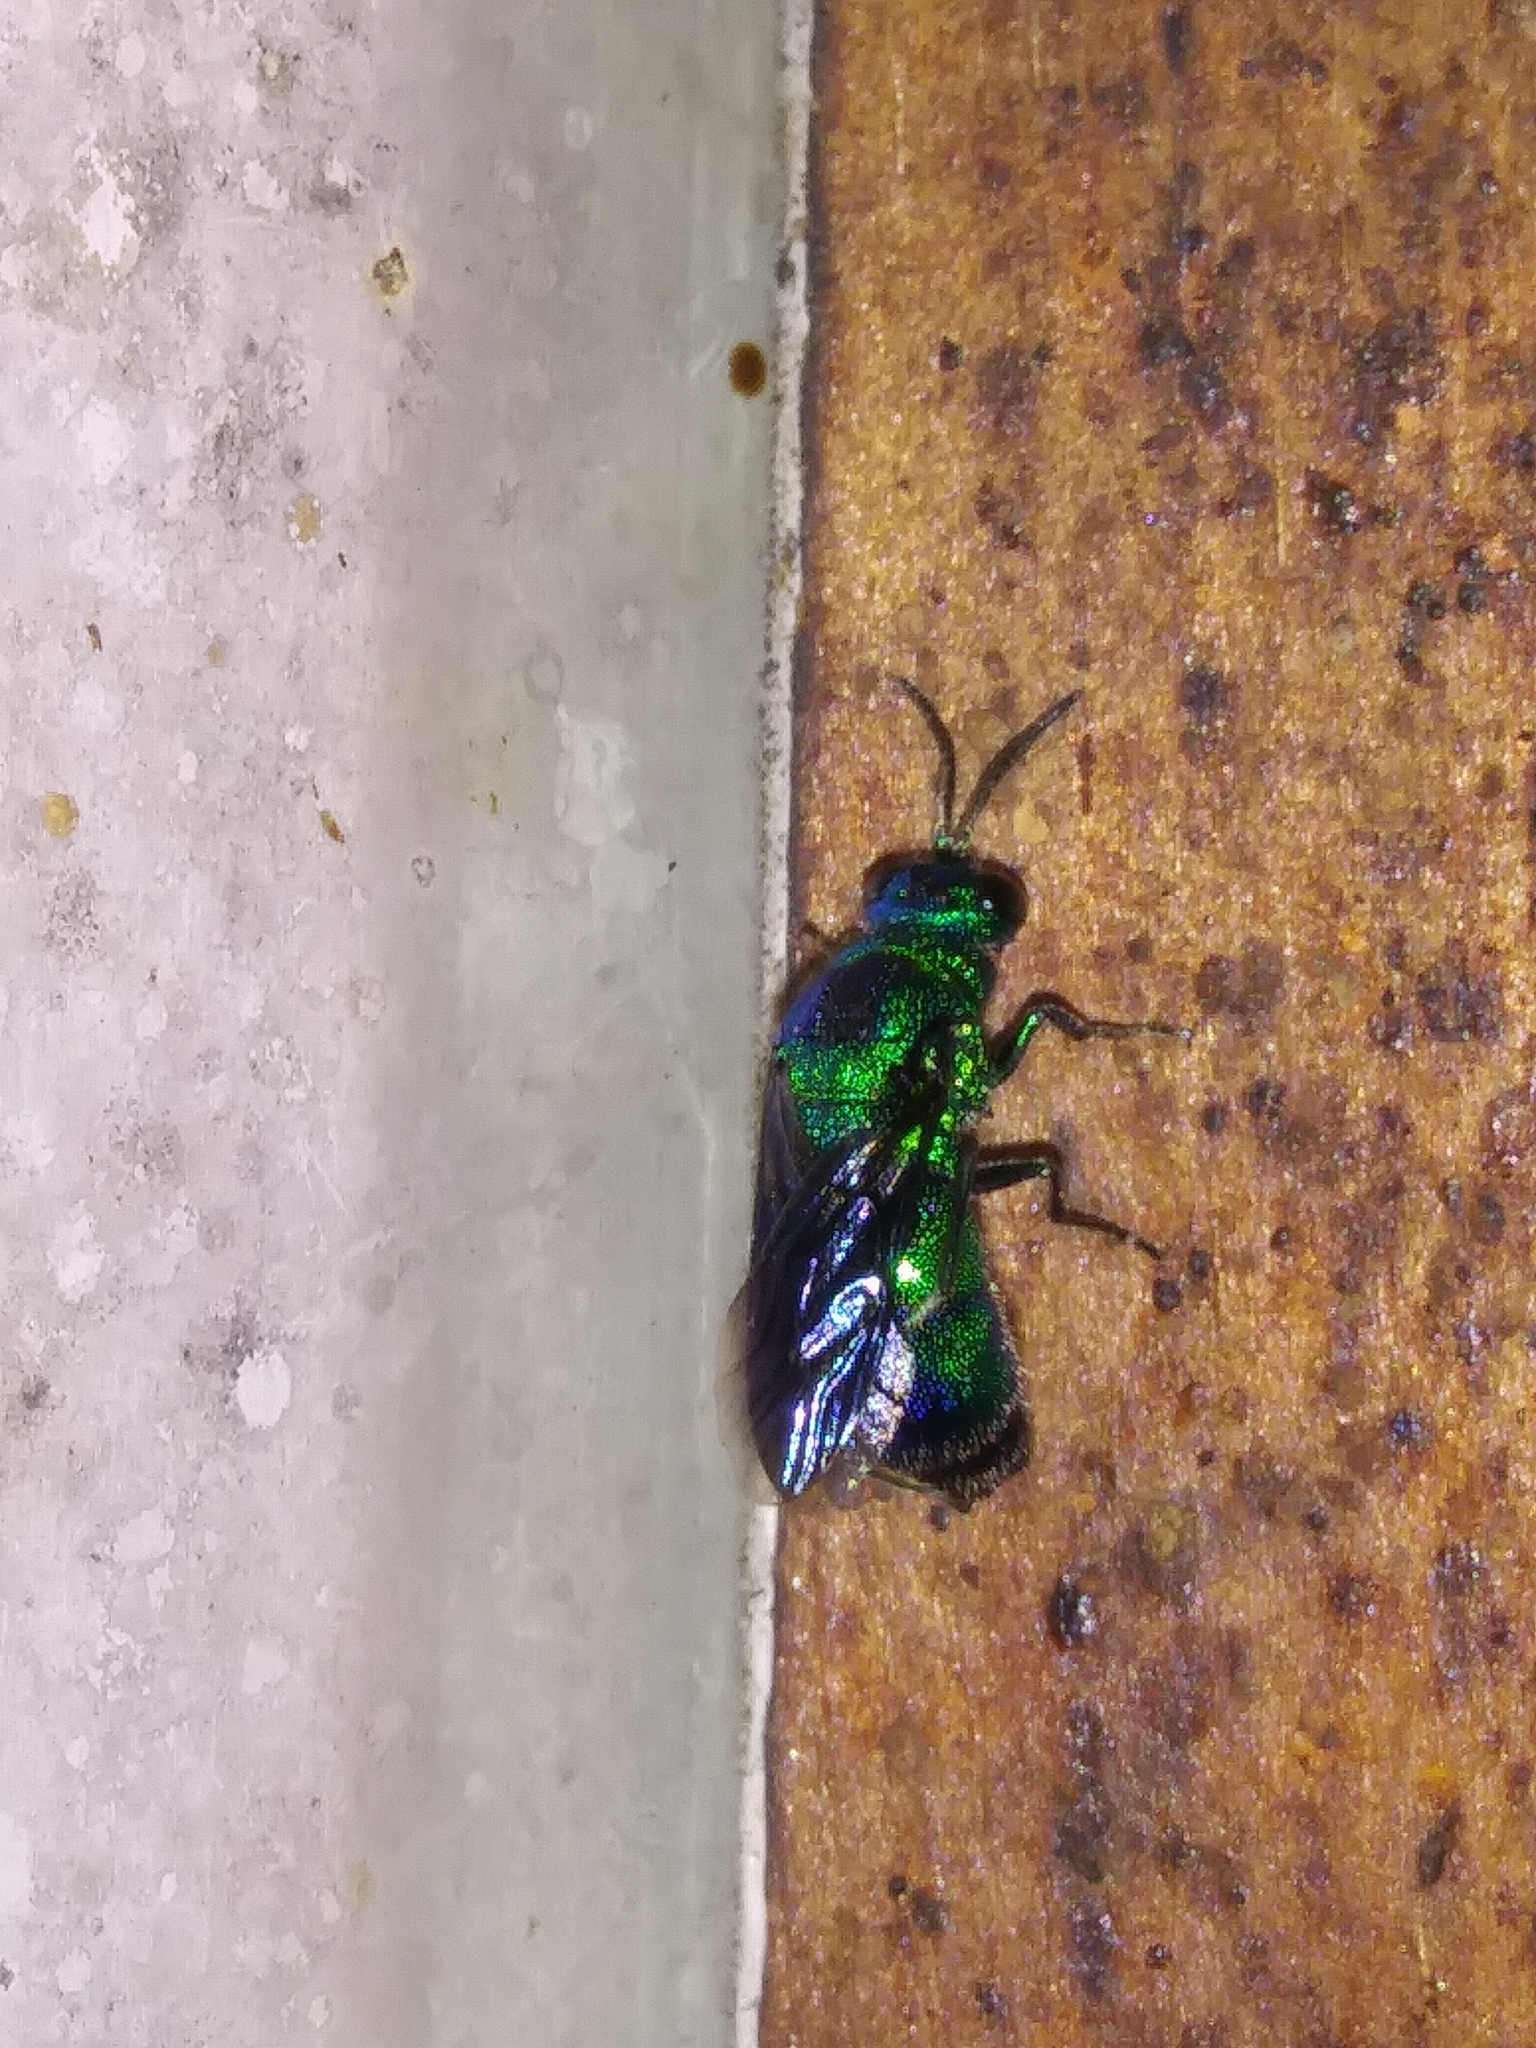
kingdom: Animalia
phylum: Arthropoda
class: Insecta
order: Hymenoptera
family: Chrysididae
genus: Chrysis
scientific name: Chrysis angolensis
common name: Cuckoo wasp
